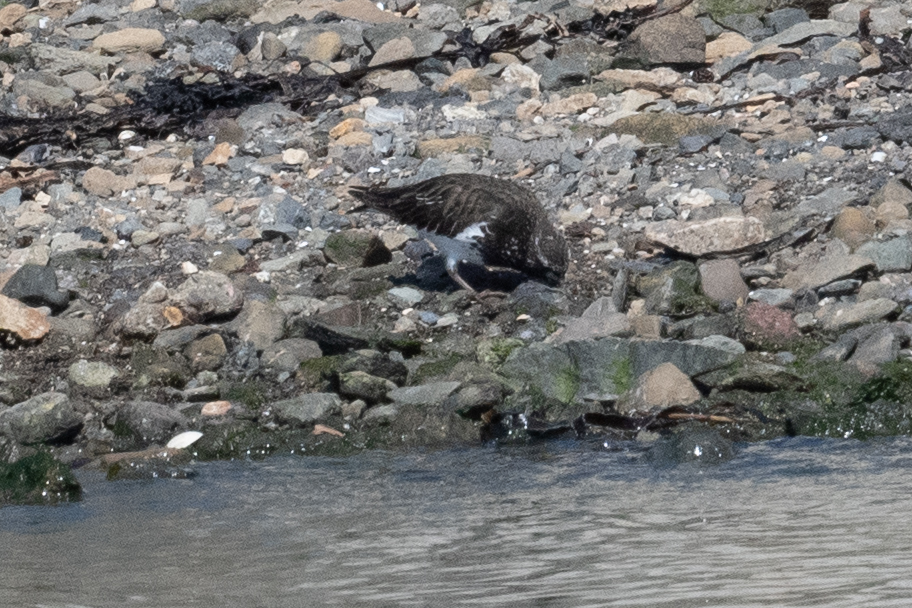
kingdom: Animalia
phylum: Chordata
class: Aves
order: Charadriiformes
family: Scolopacidae
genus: Arenaria
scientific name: Arenaria melanocephala
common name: Black turnstone
